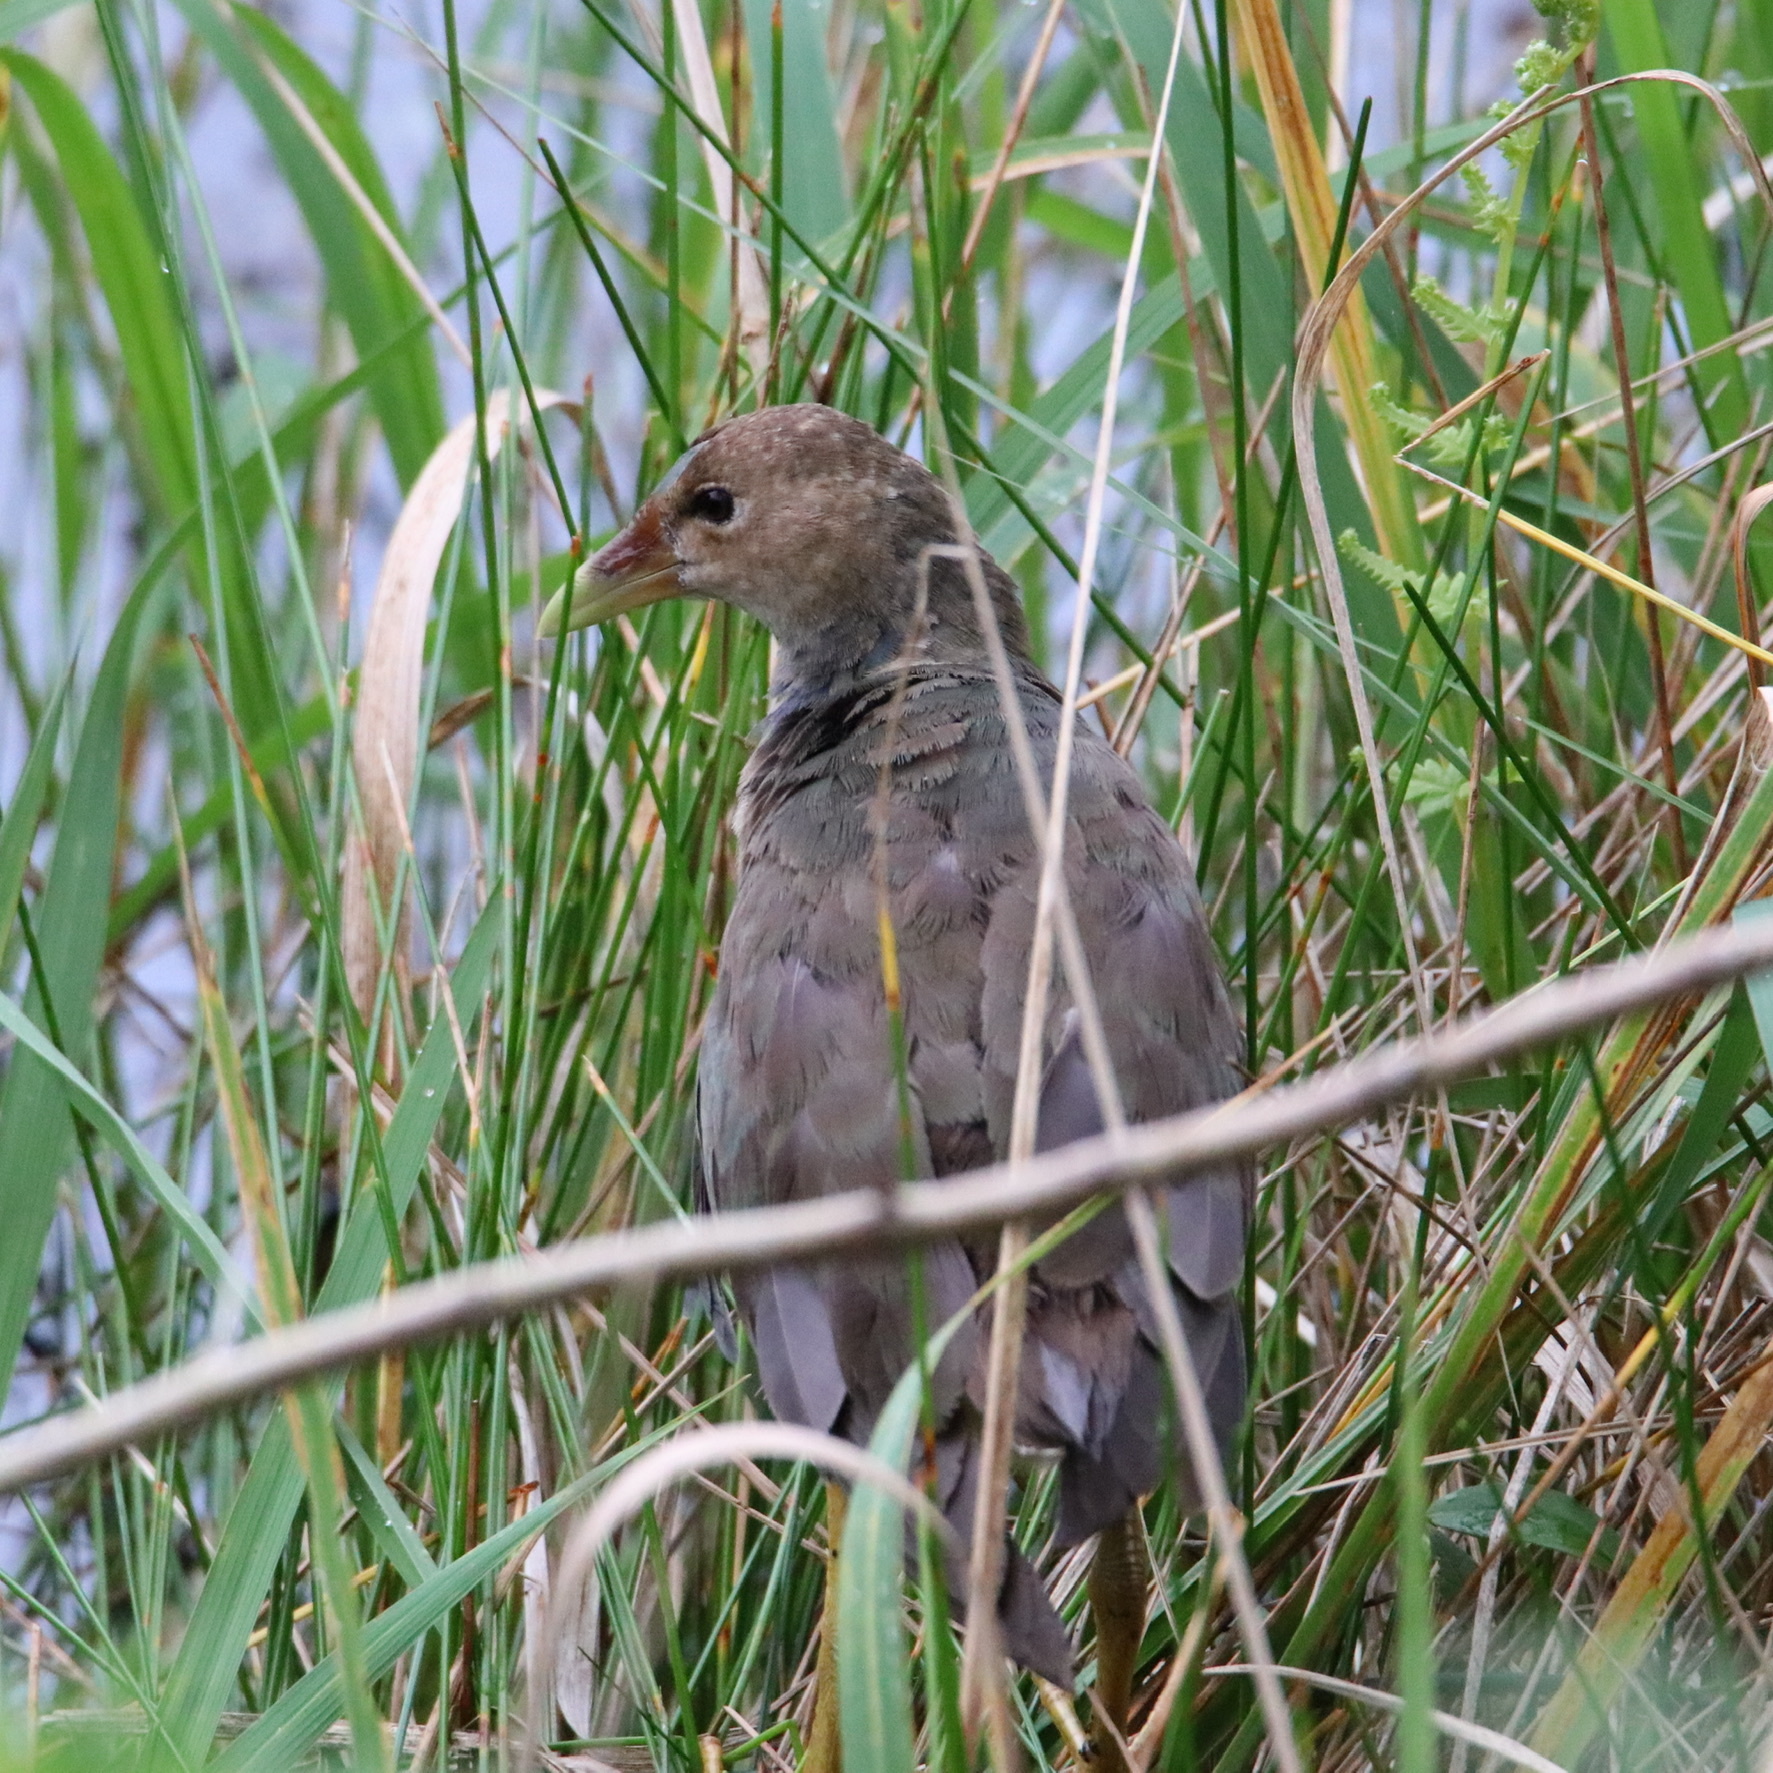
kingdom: Animalia
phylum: Chordata
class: Aves
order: Gruiformes
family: Rallidae
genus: Porphyrio
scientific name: Porphyrio martinica
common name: Purple gallinule
